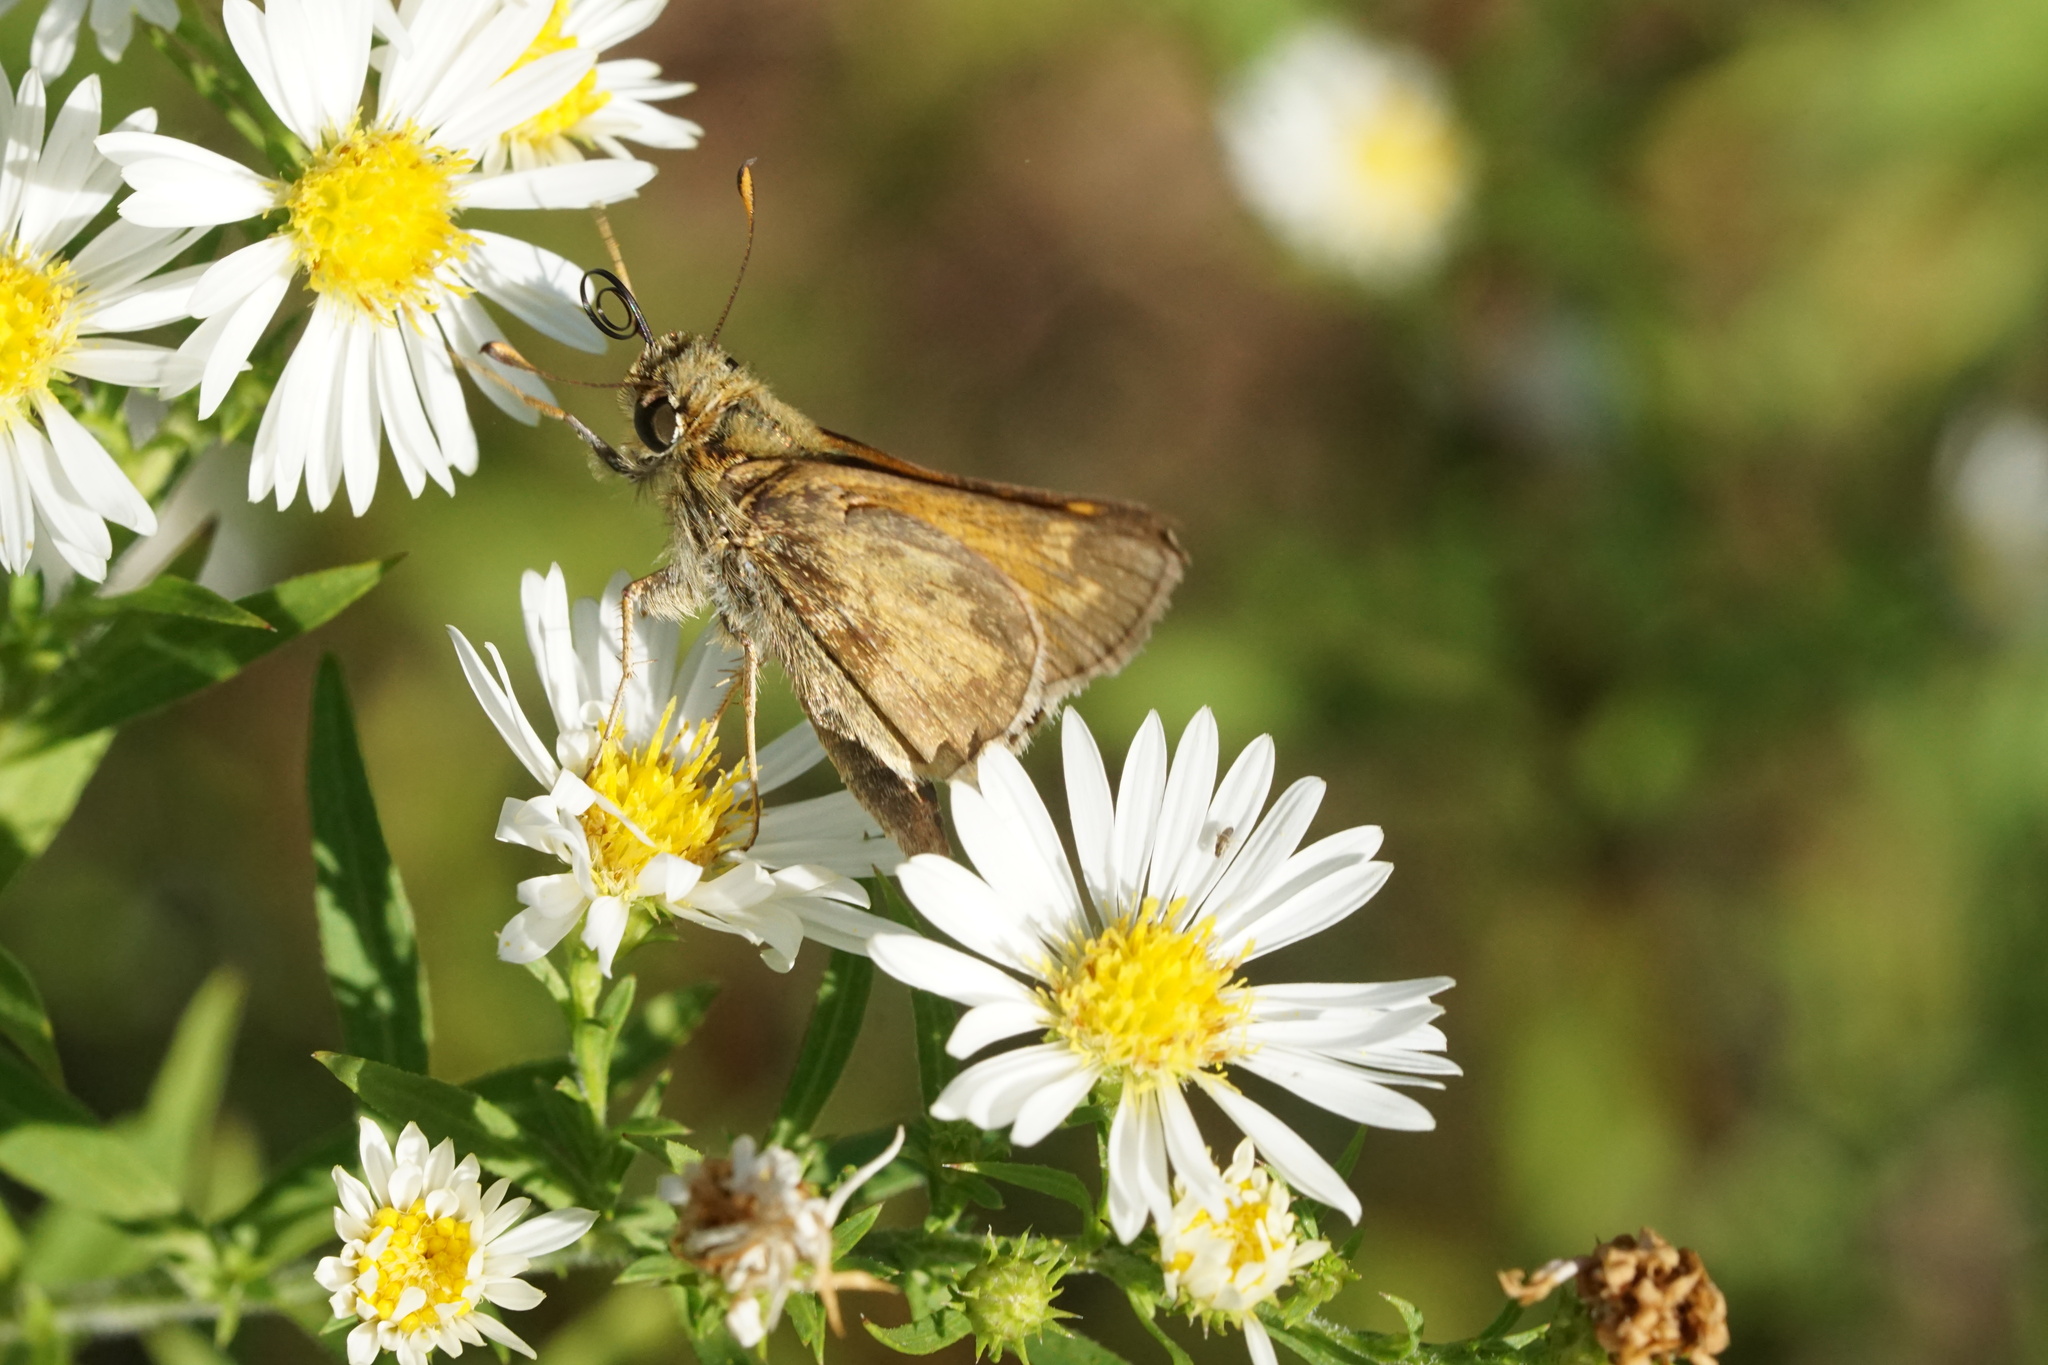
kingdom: Animalia
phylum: Arthropoda
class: Insecta
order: Lepidoptera
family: Hesperiidae
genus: Atalopedes
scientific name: Atalopedes
